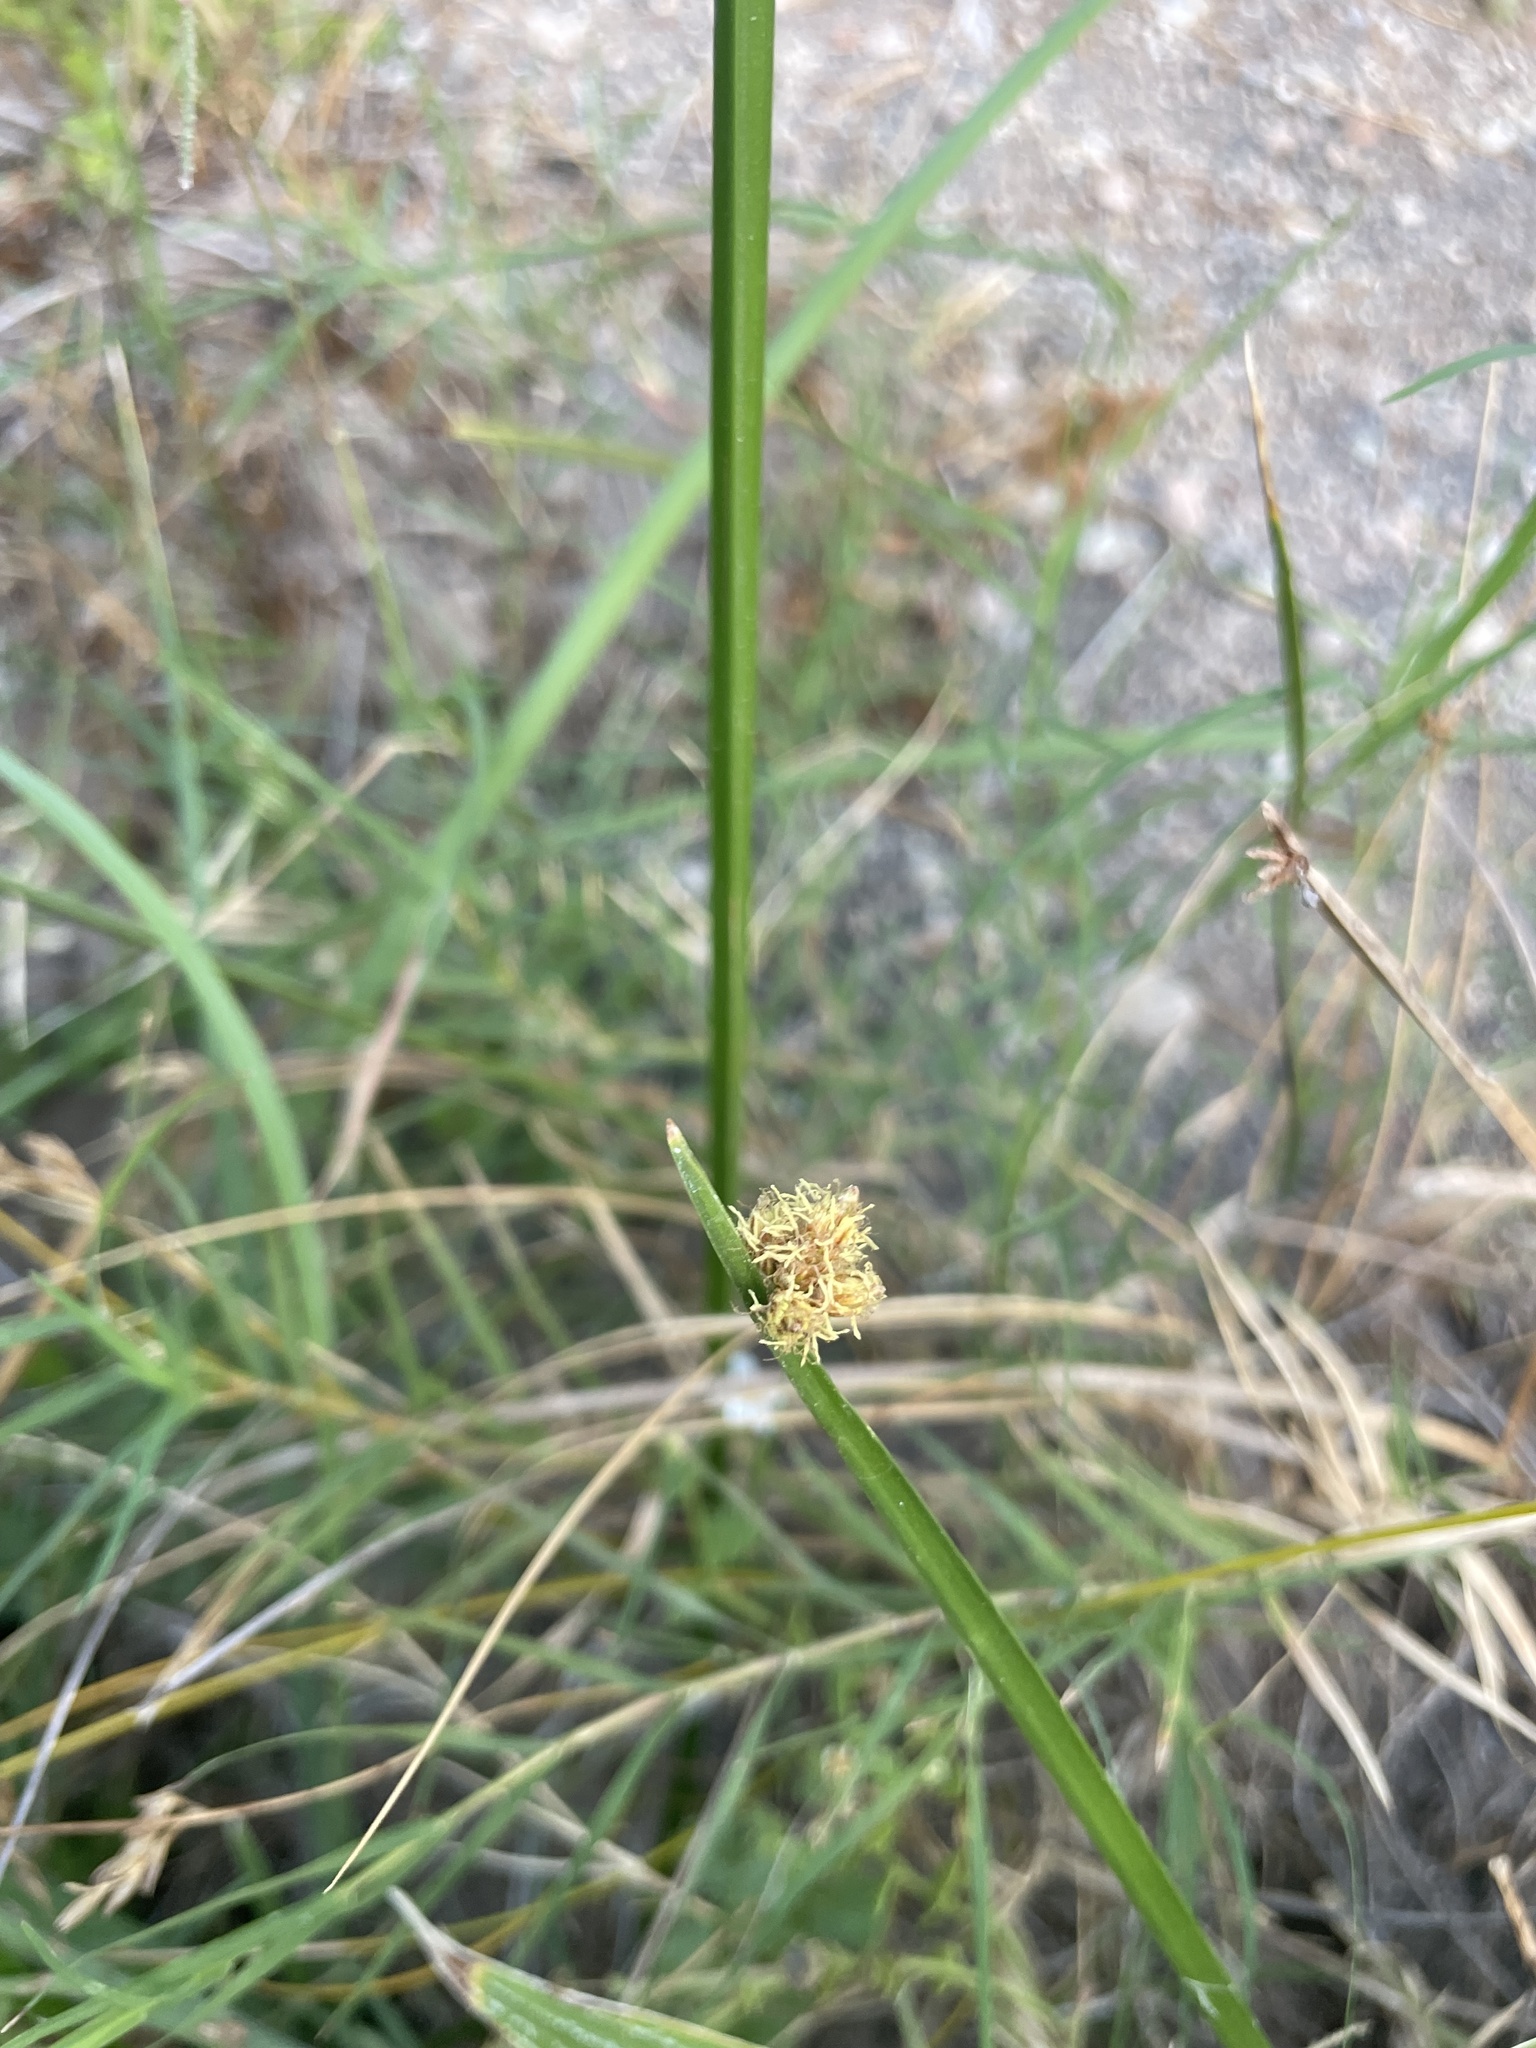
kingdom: Plantae
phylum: Tracheophyta
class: Liliopsida
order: Poales
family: Cyperaceae
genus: Schoenoplectus
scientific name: Schoenoplectus americanus
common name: American three-square bulrush
